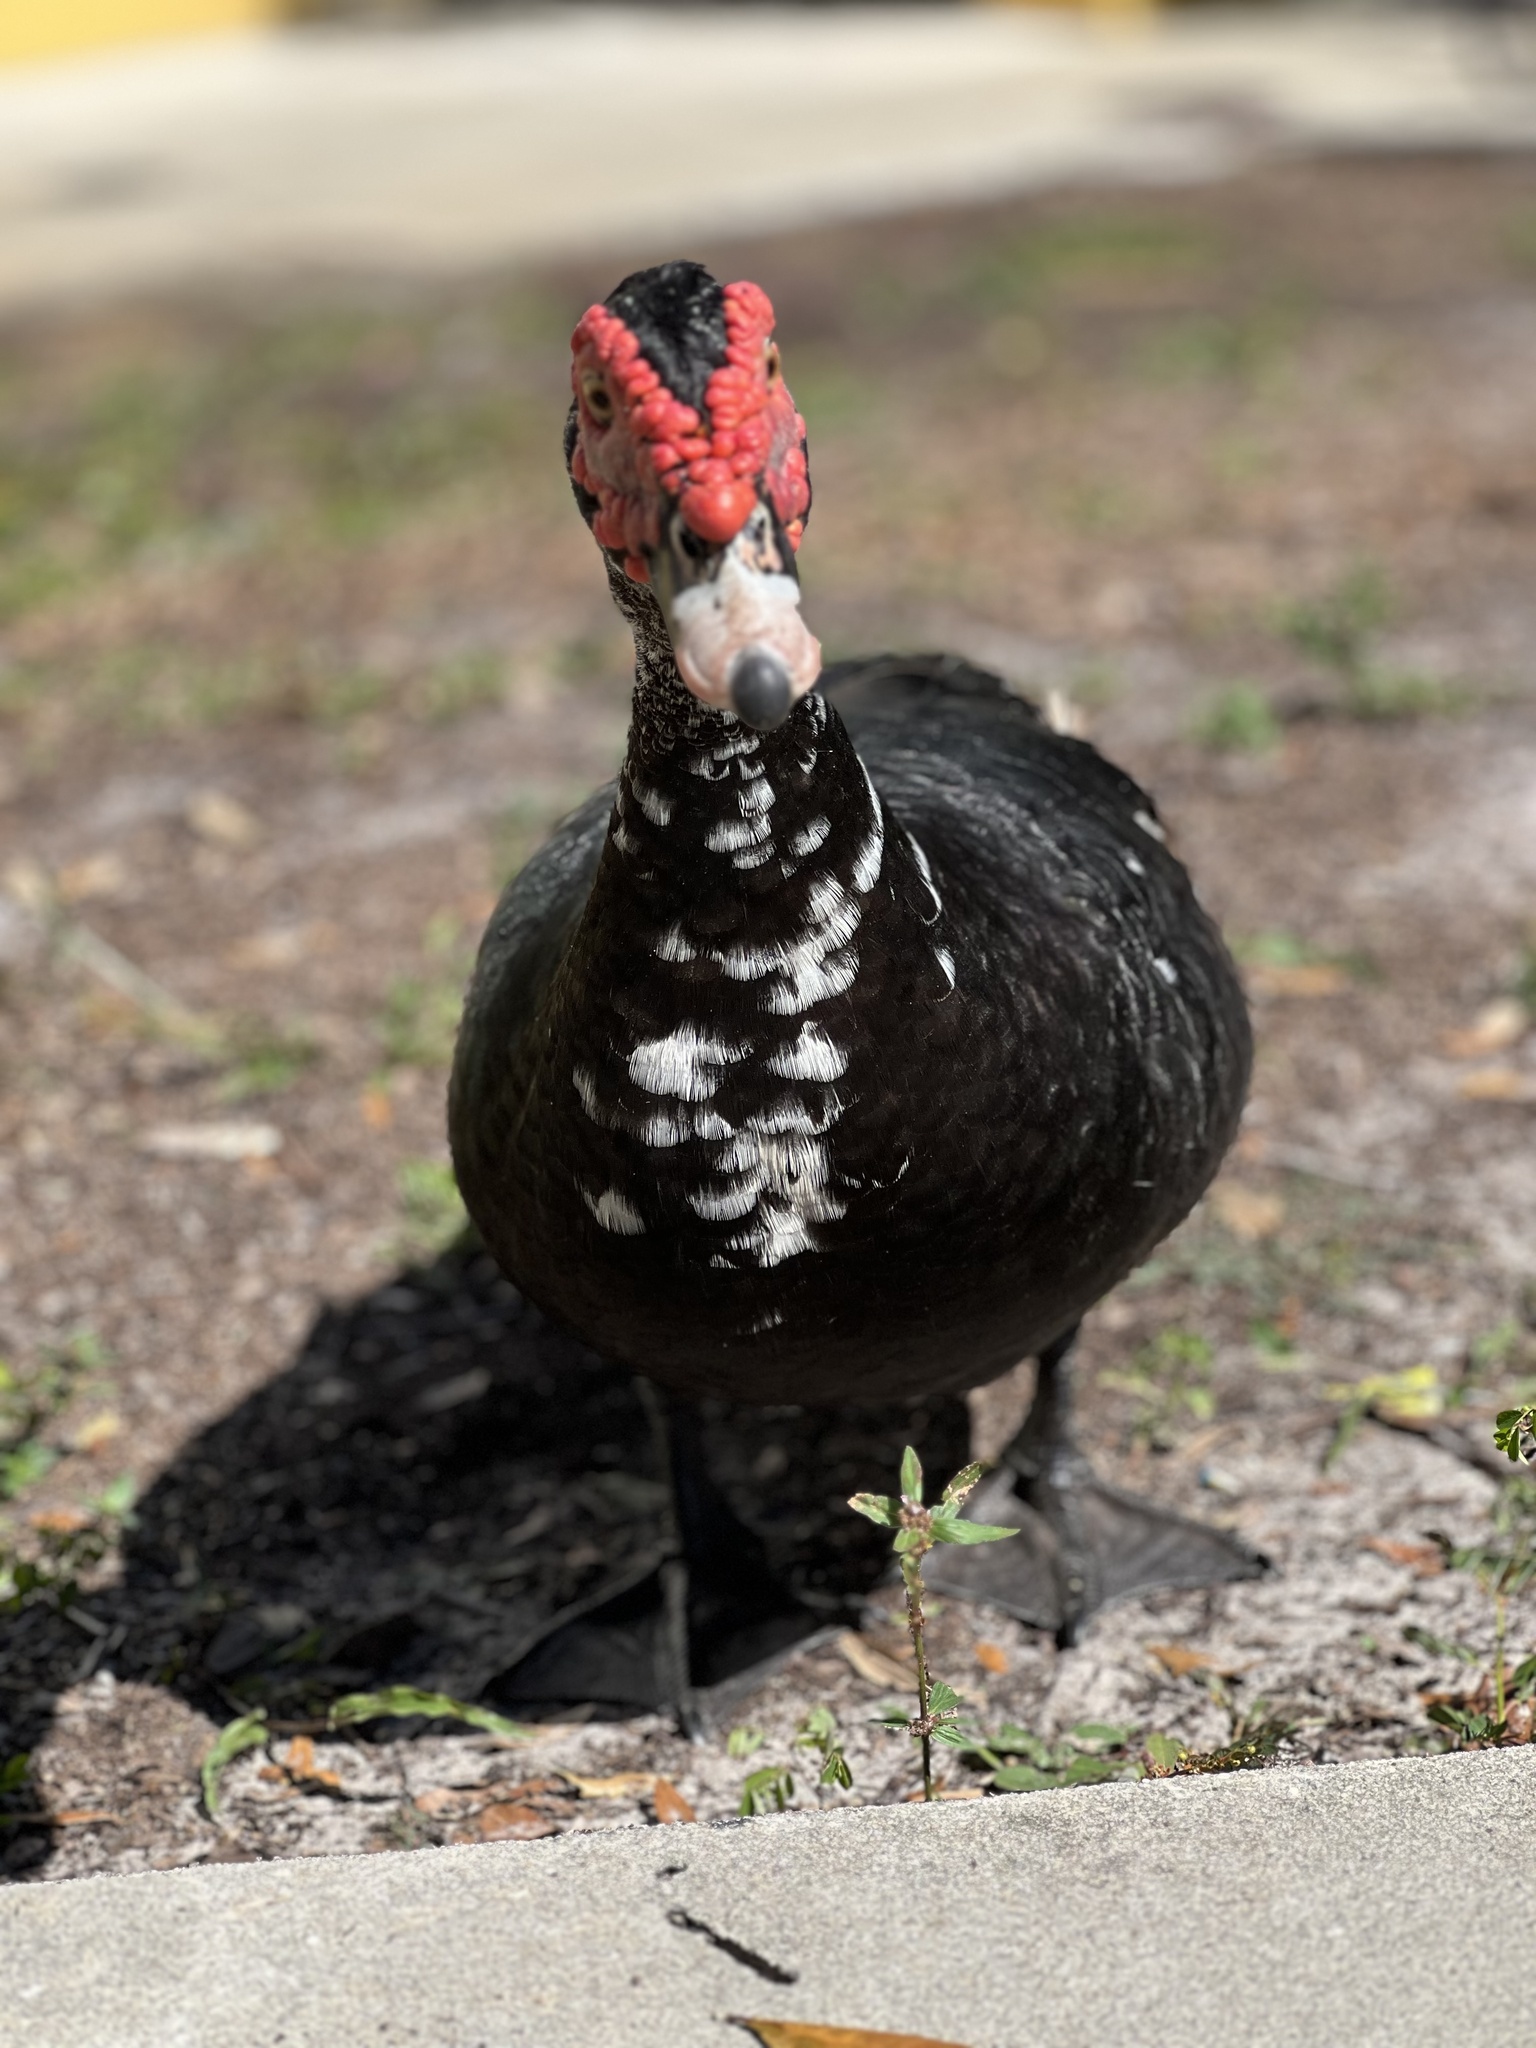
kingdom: Animalia
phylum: Chordata
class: Aves
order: Anseriformes
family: Anatidae
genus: Cairina
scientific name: Cairina moschata
